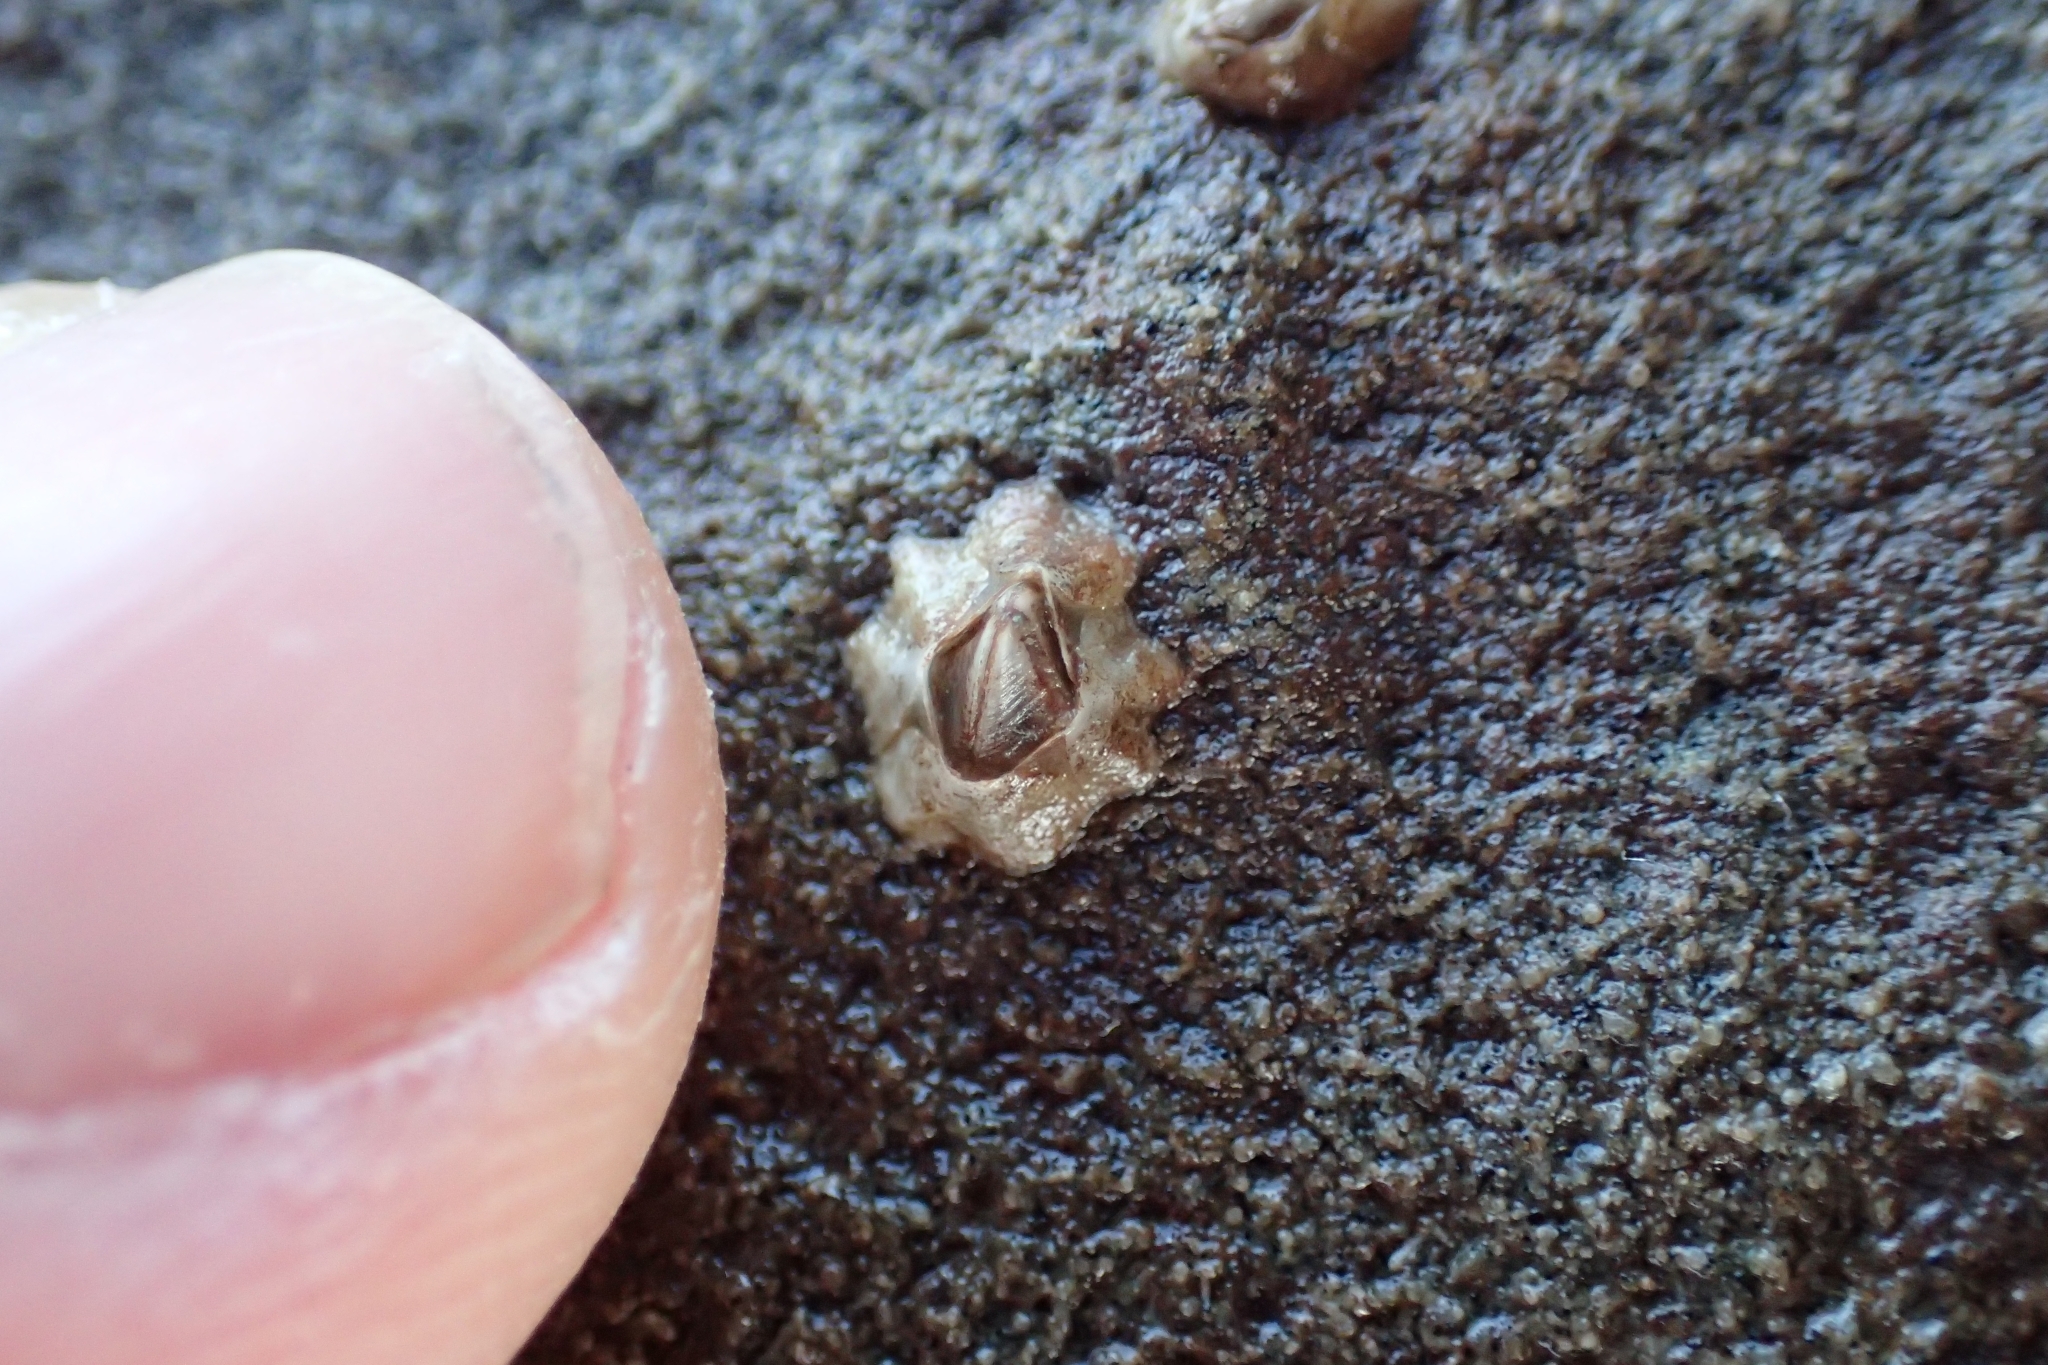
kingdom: Animalia
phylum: Arthropoda
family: Elminiidae
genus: Austrominius
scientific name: Austrominius modestus
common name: Australasian barnacle
